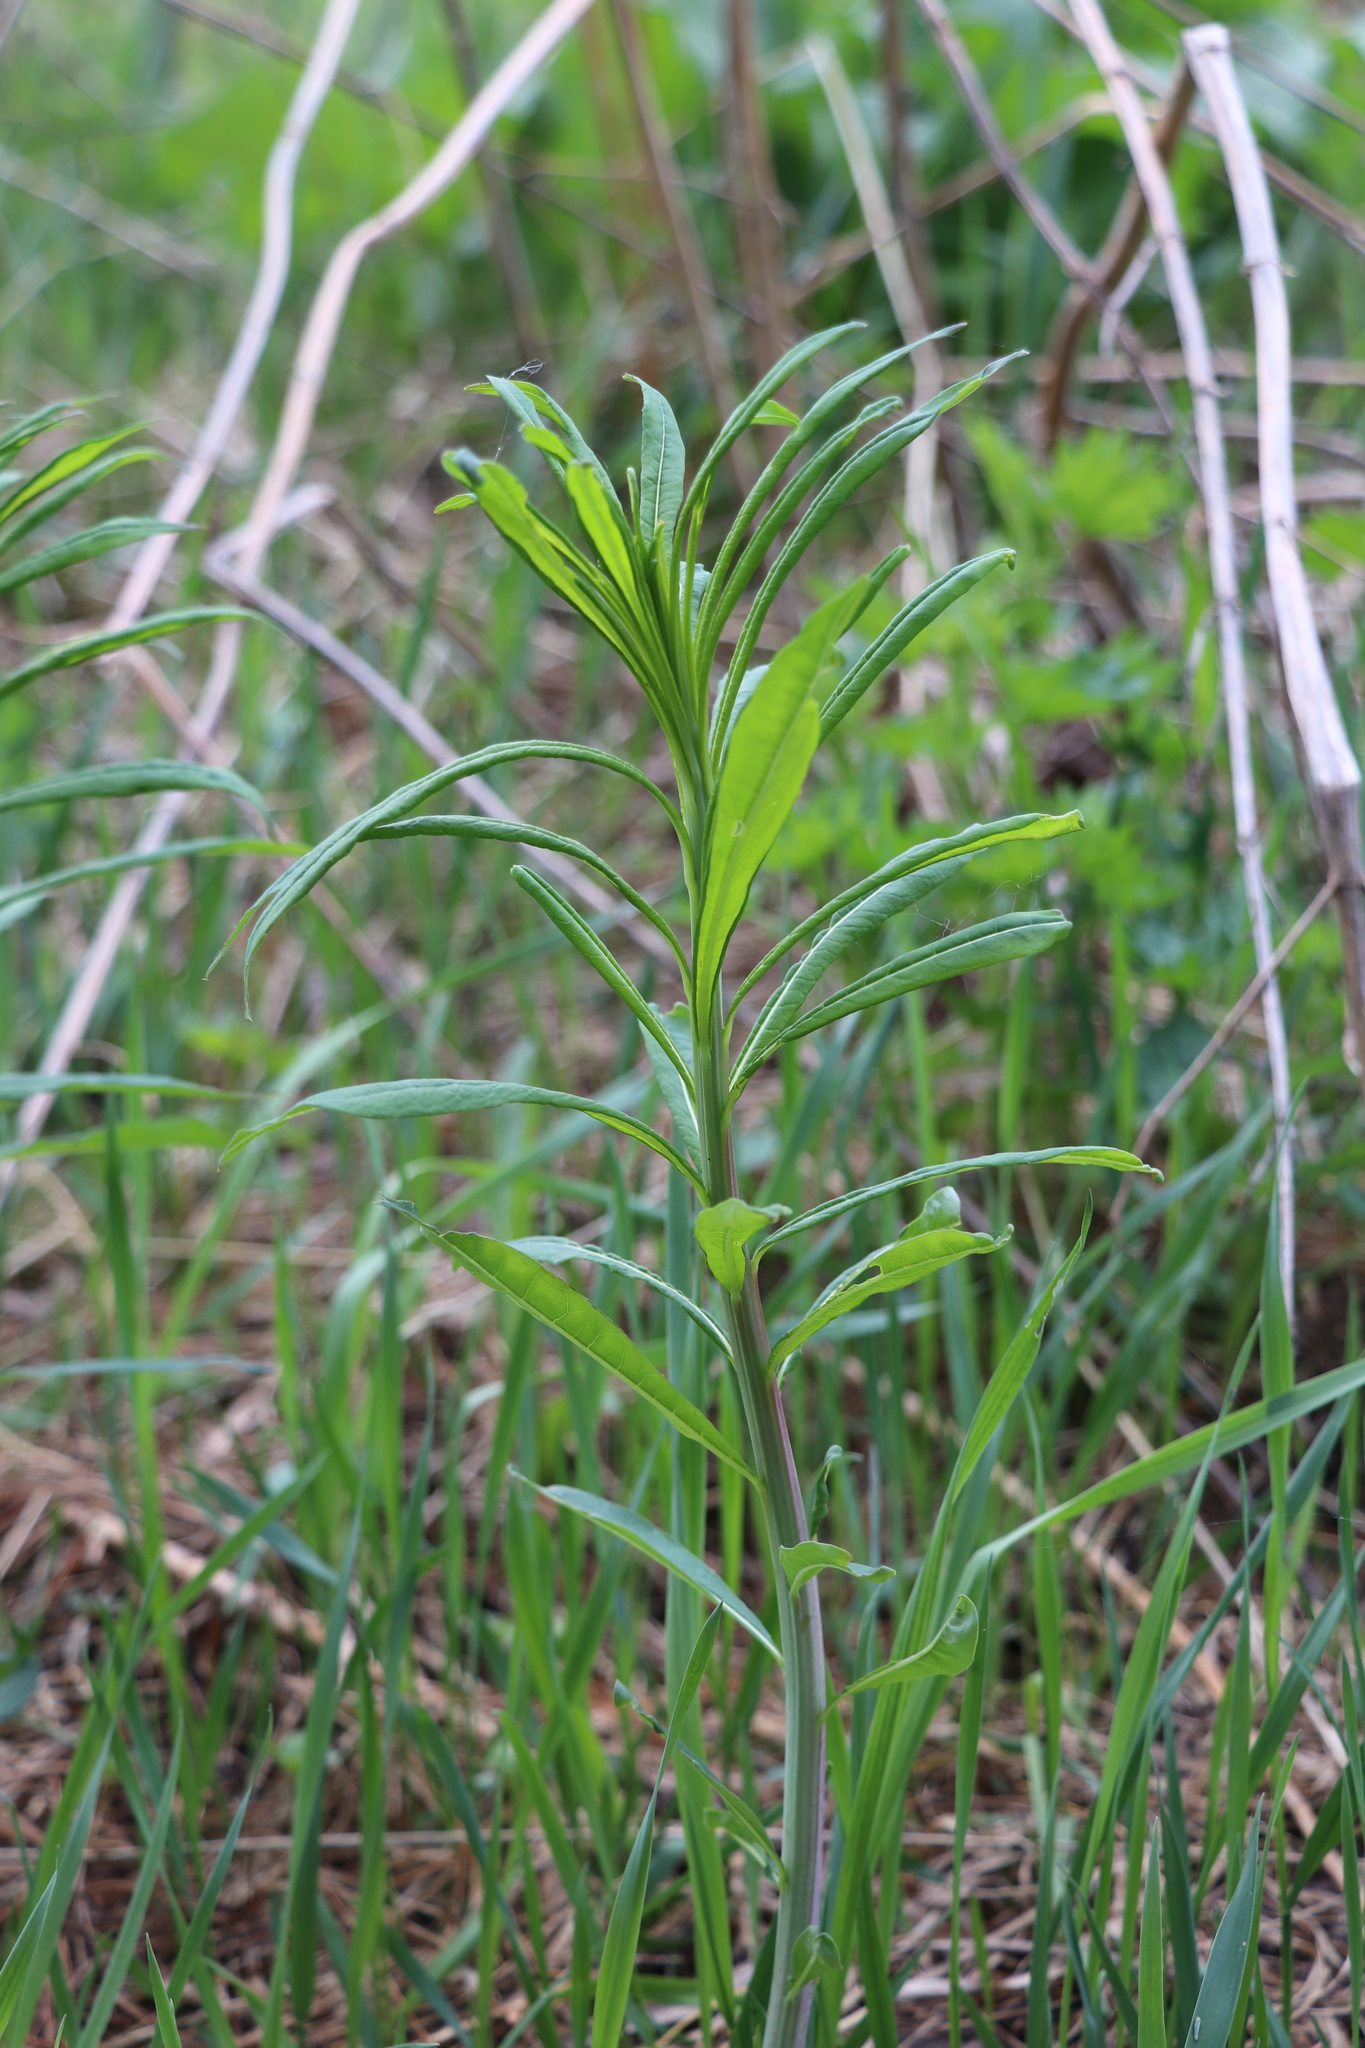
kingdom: Plantae
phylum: Tracheophyta
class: Magnoliopsida
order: Myrtales
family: Onagraceae
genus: Chamaenerion
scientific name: Chamaenerion angustifolium
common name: Fireweed
